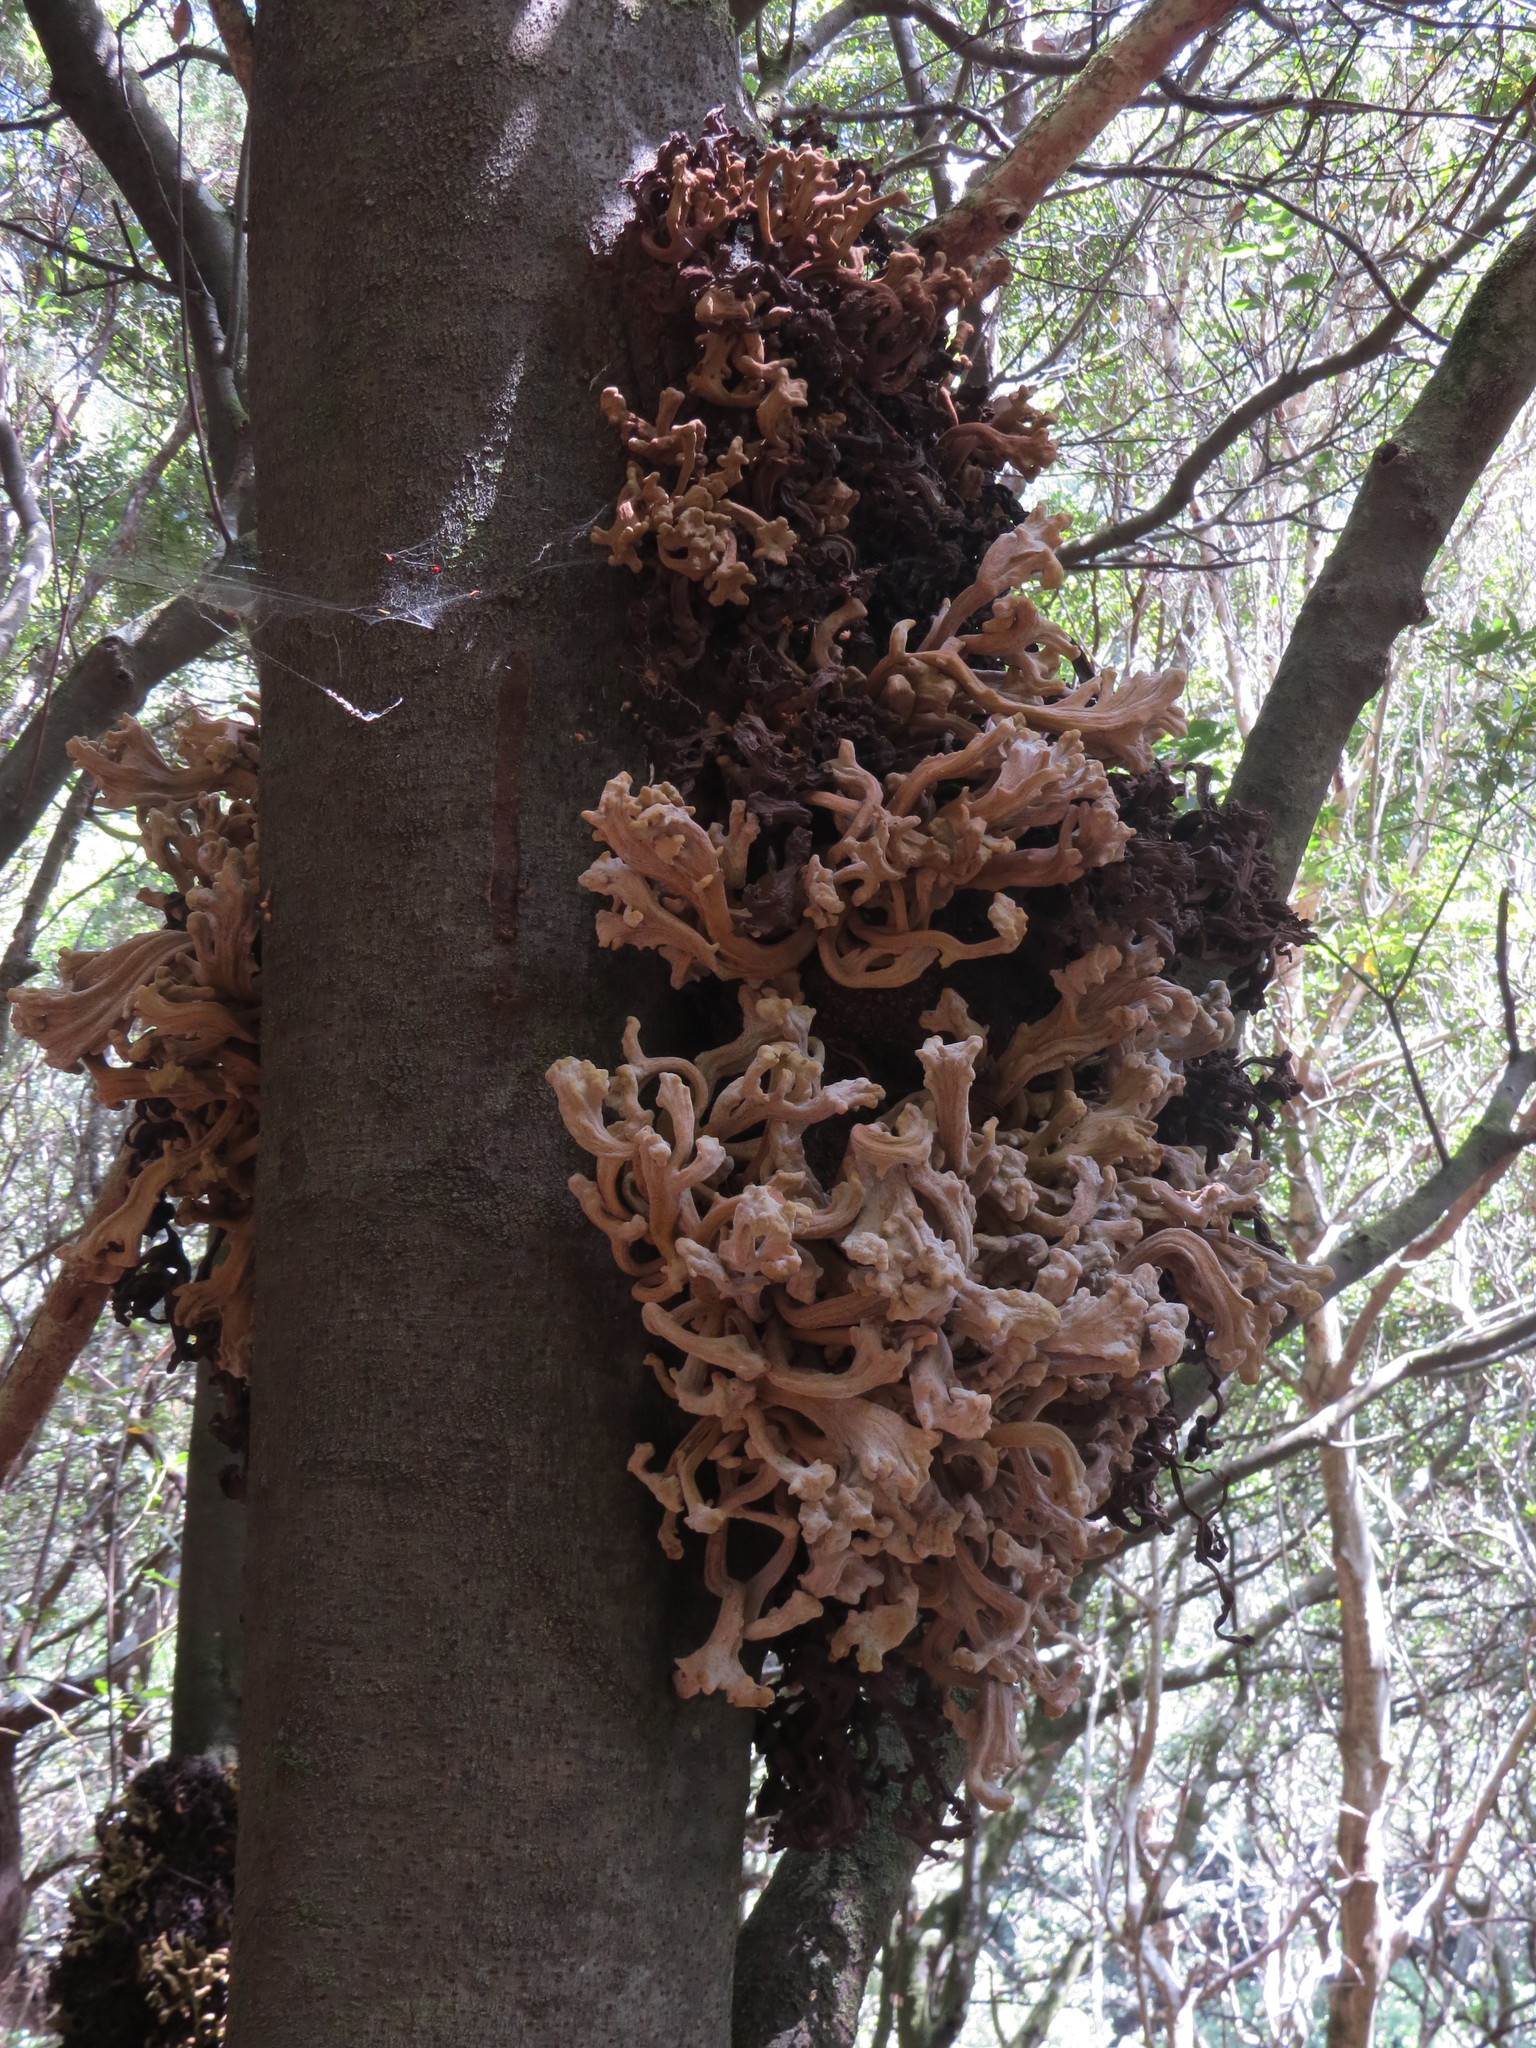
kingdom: Fungi
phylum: Basidiomycota
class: Exobasidiomycetes
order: Exobasidiales
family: Laurobasidiaceae
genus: Laurobasidium
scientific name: Laurobasidium lauri
